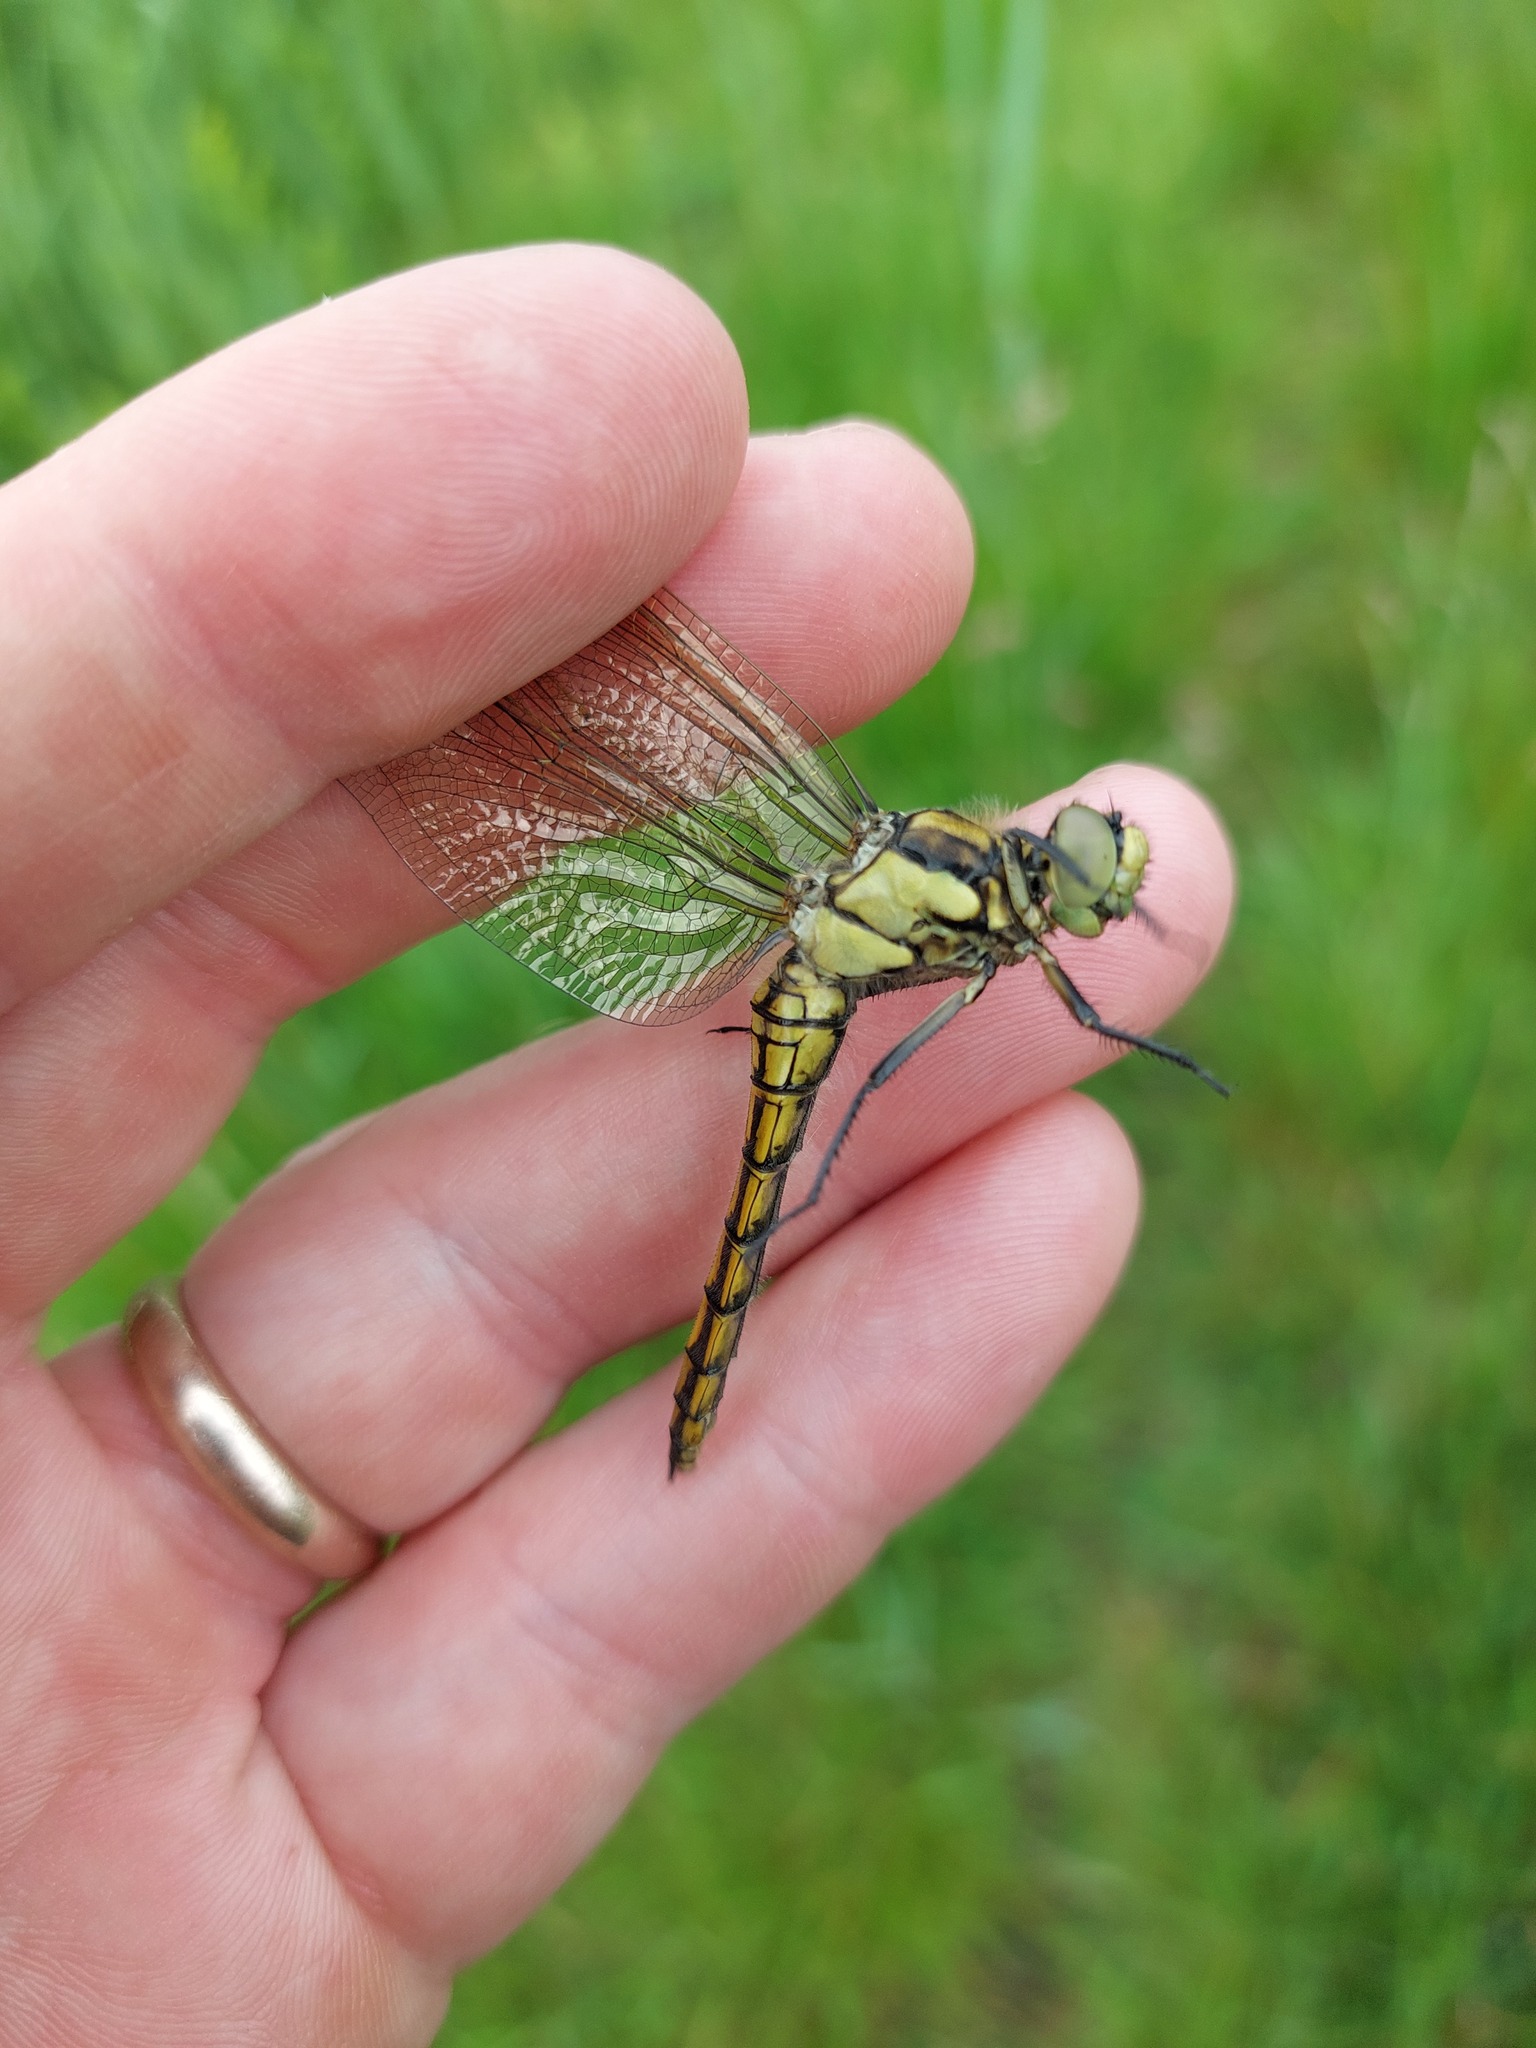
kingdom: Animalia
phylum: Arthropoda
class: Insecta
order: Odonata
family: Libellulidae
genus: Orthetrum
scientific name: Orthetrum cancellatum
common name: Black-tailed skimmer
